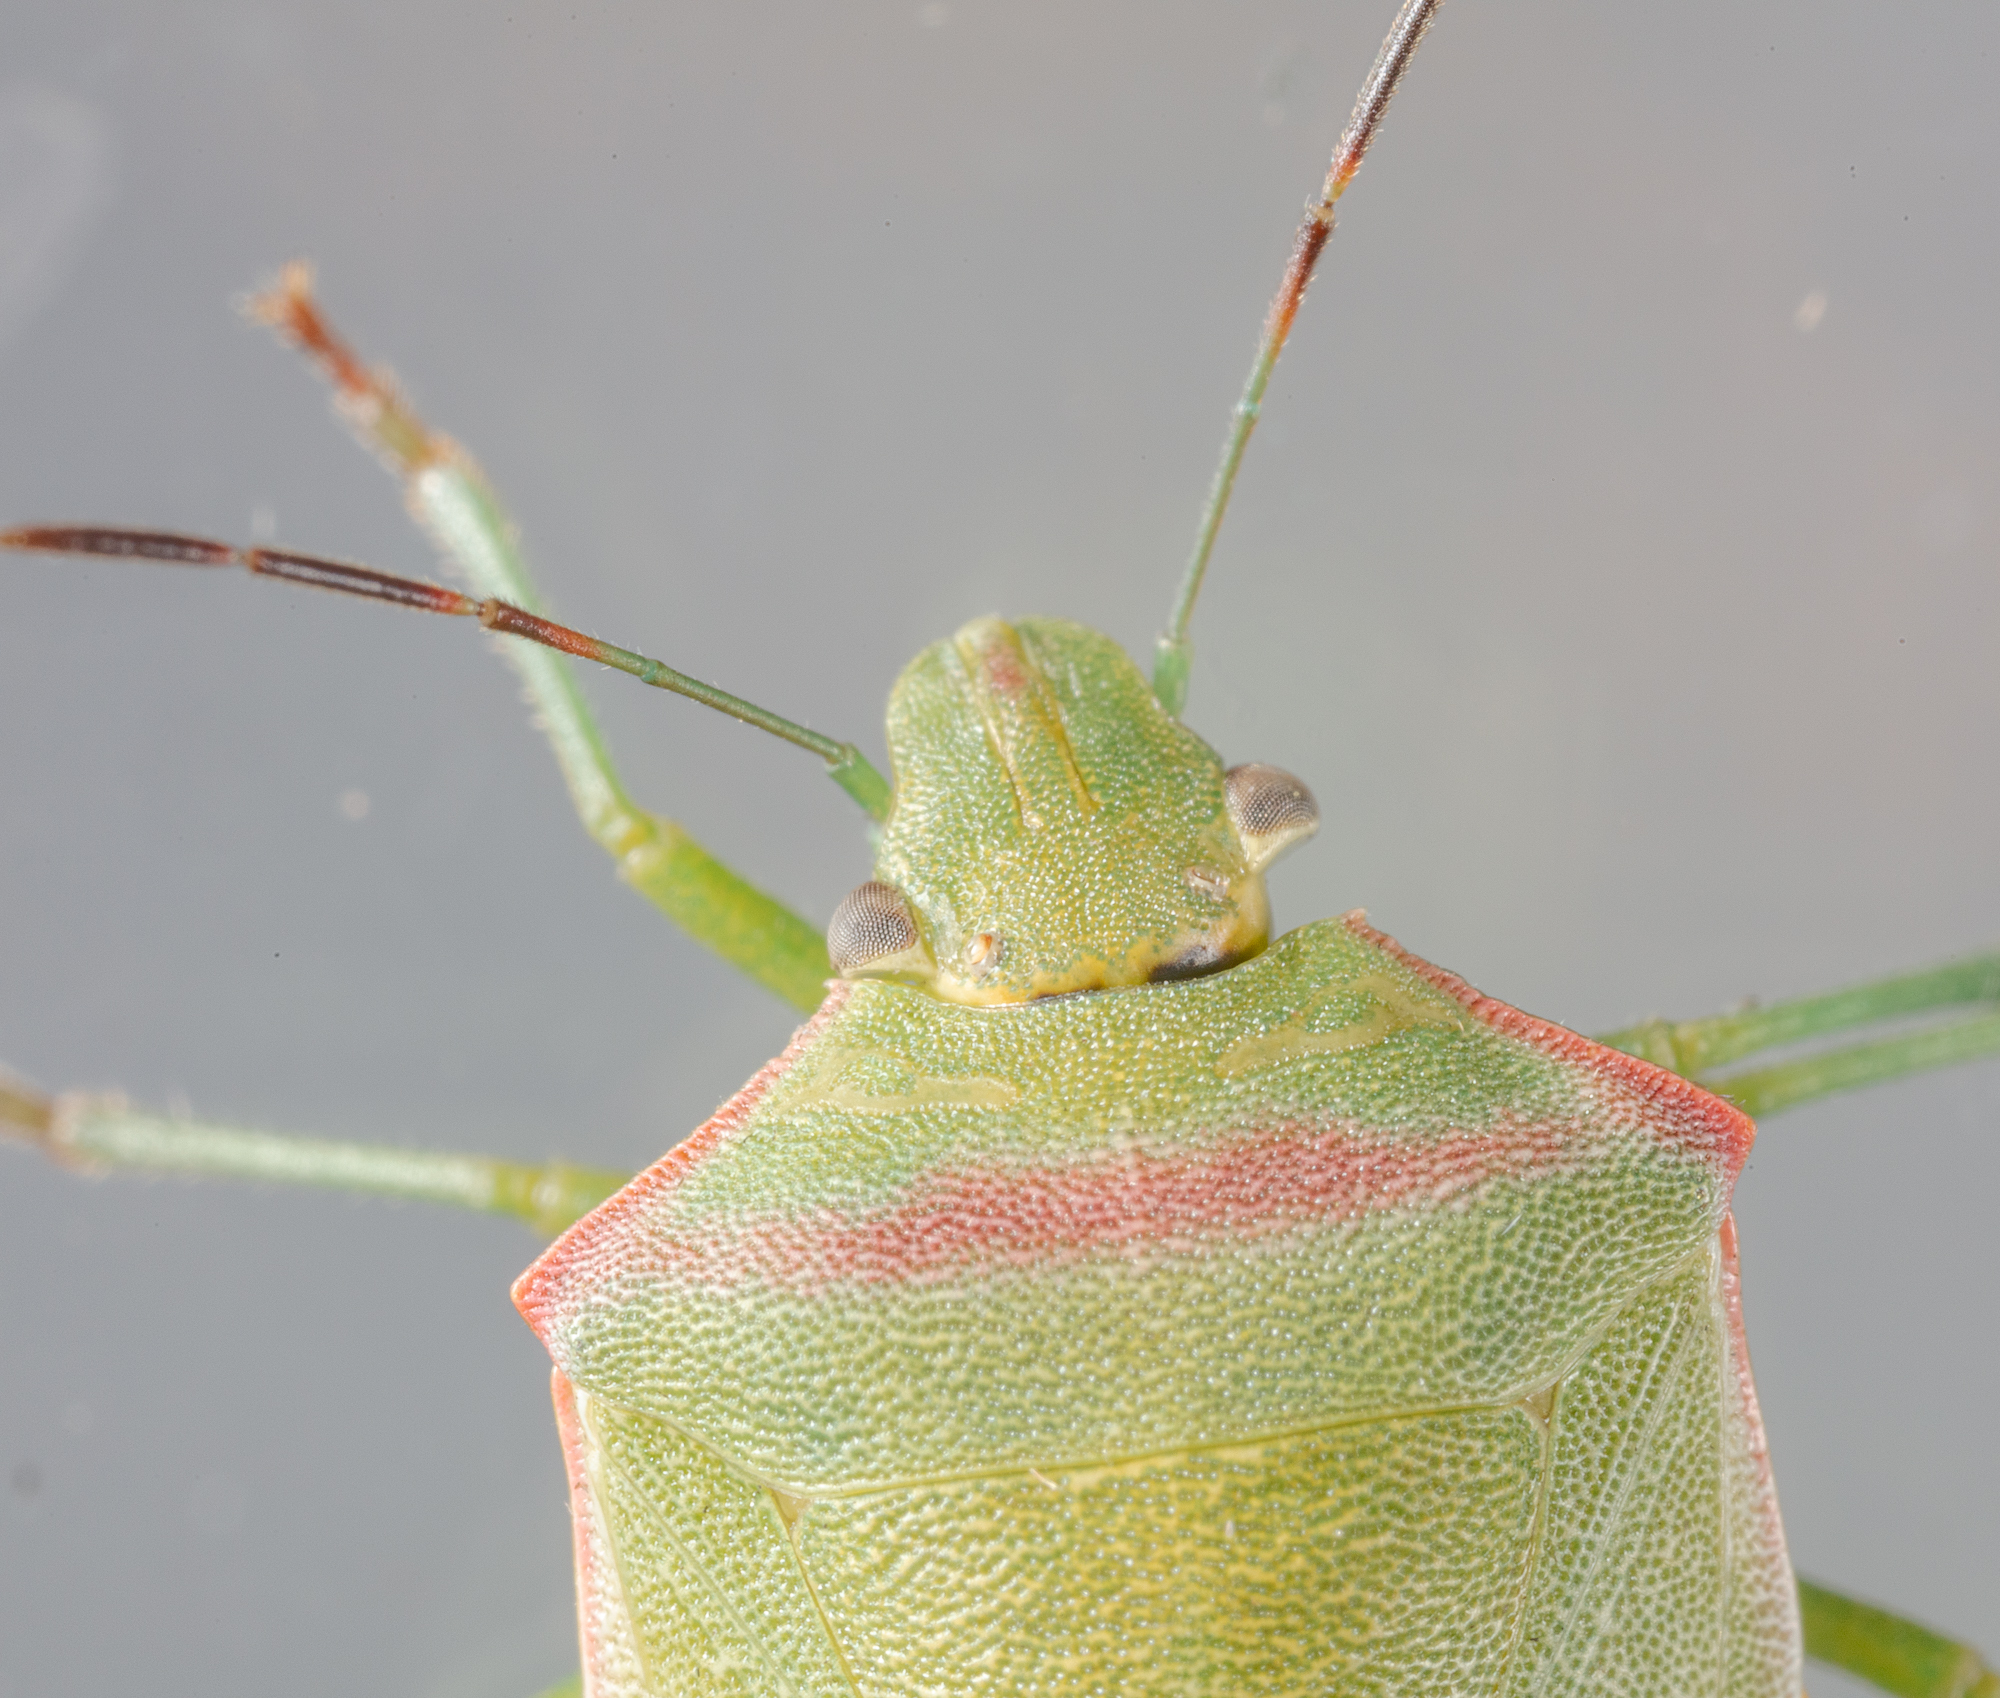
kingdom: Animalia
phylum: Arthropoda
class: Insecta
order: Hemiptera
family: Pentatomidae
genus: Thyanta
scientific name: Thyanta custator
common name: Stink bug
